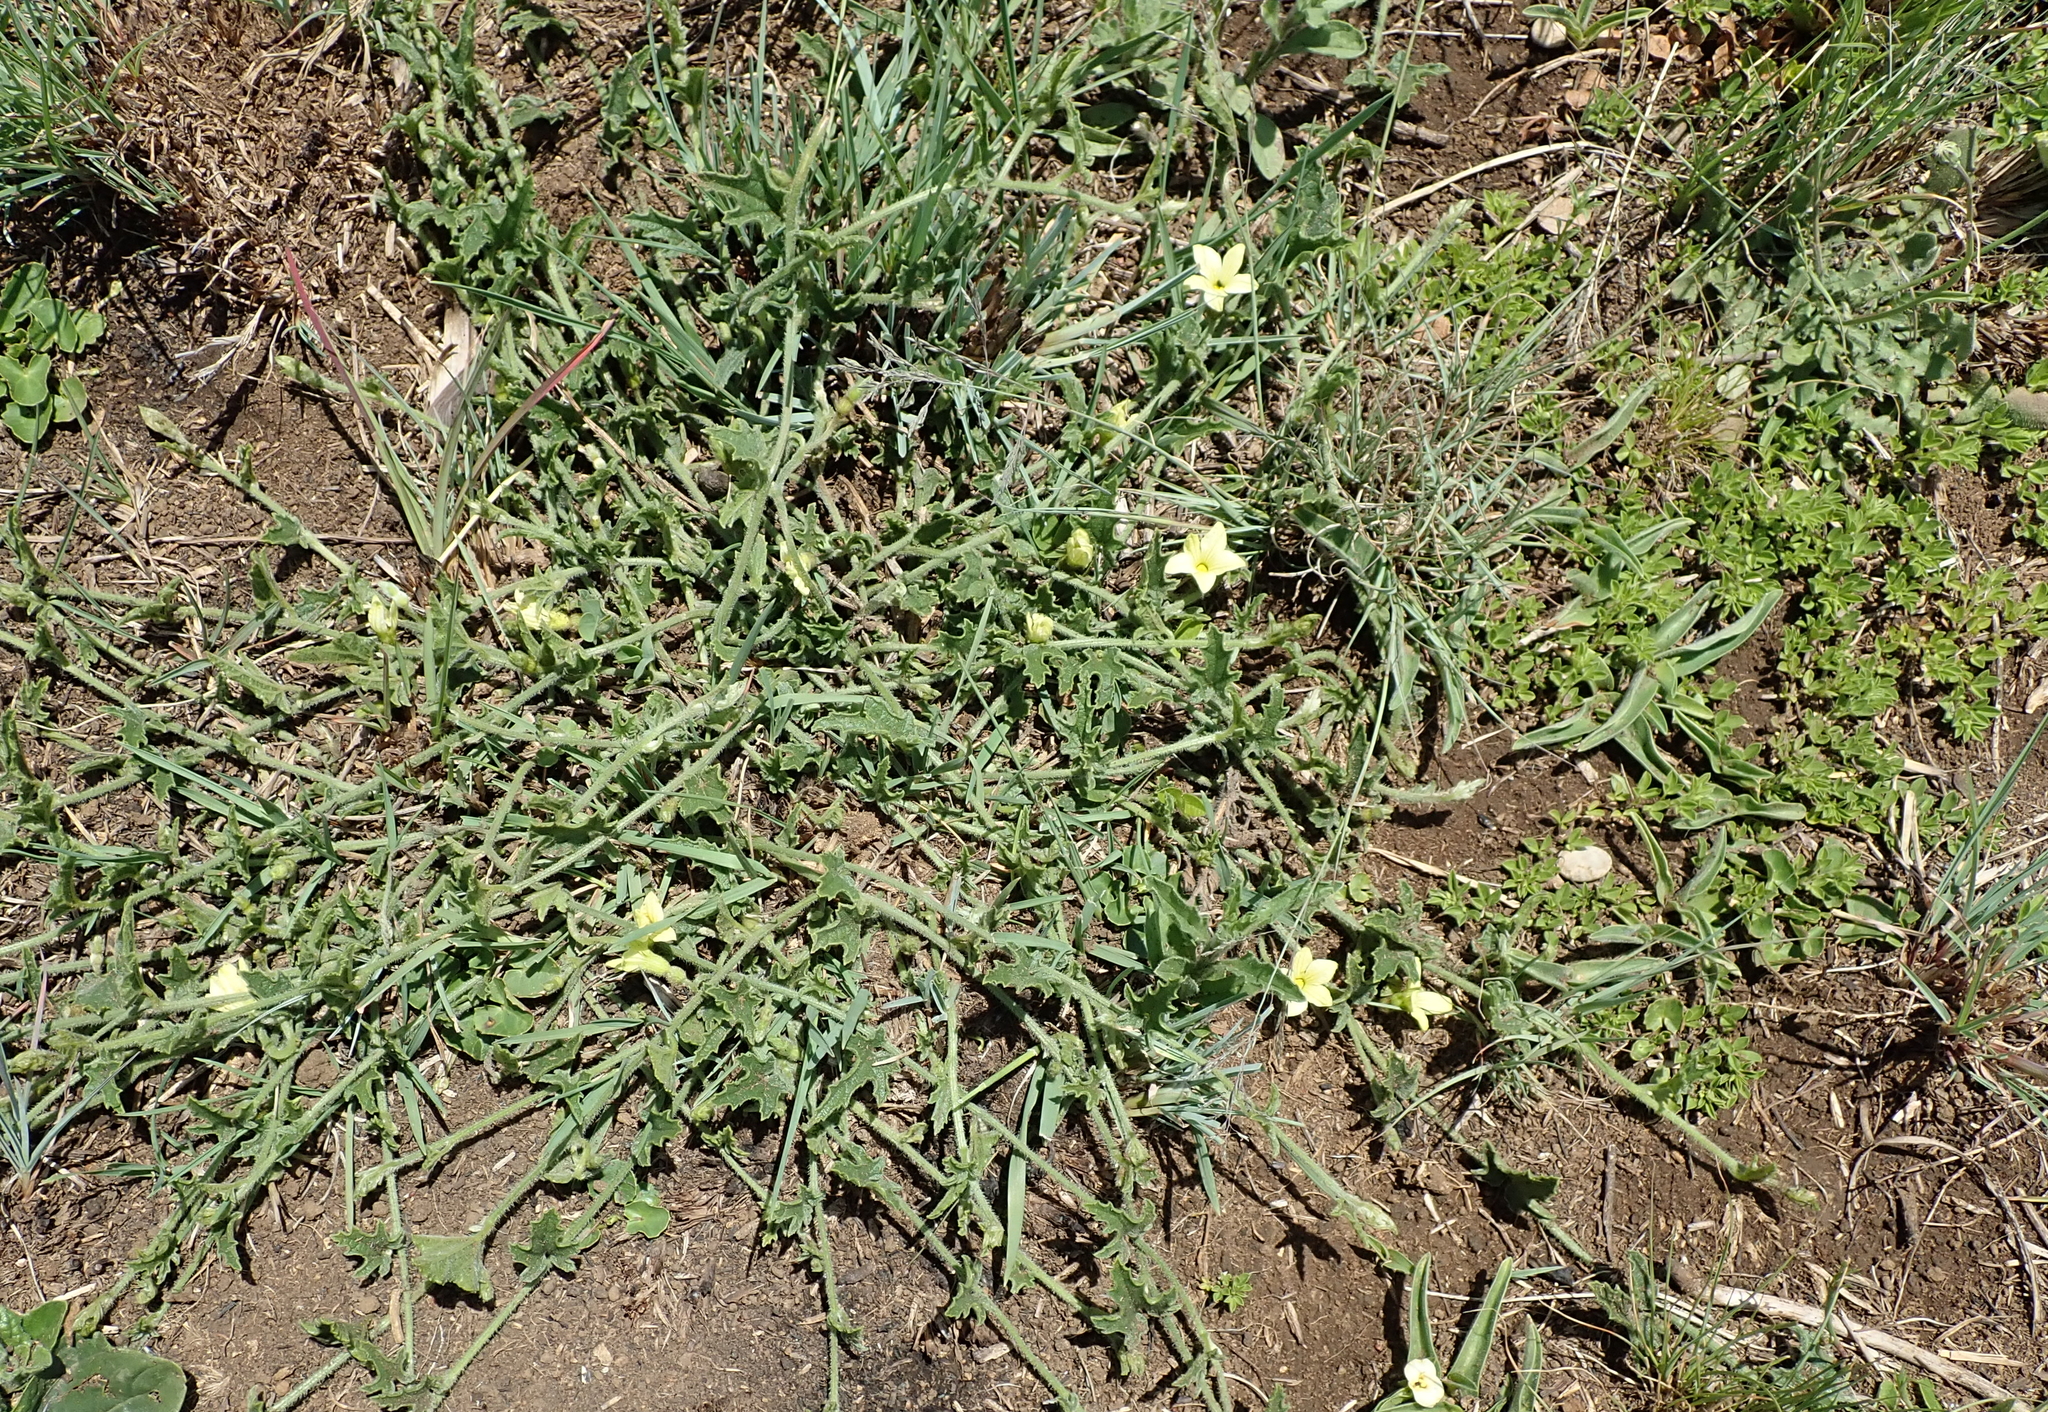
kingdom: Plantae
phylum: Tracheophyta
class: Magnoliopsida
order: Cucurbitales
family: Cucurbitaceae
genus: Cucumis
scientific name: Cucumis hirsutus
